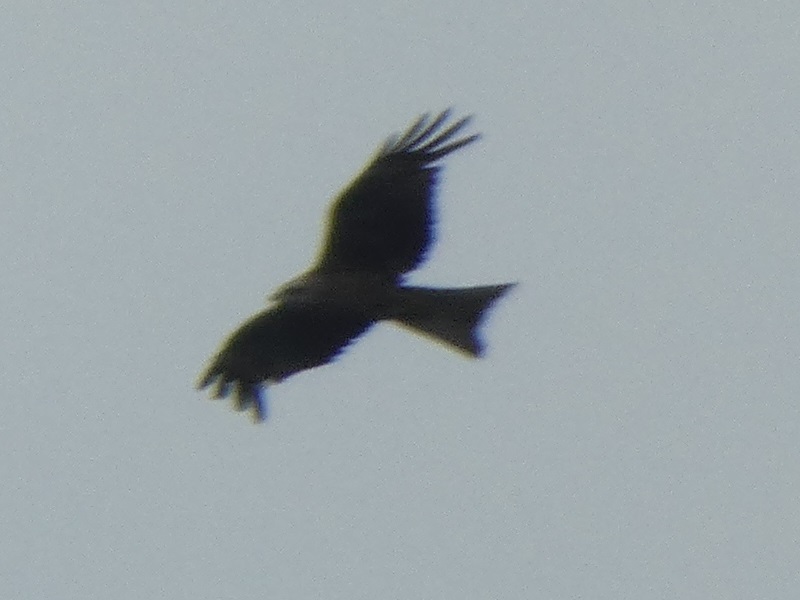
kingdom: Animalia
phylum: Chordata
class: Aves
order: Accipitriformes
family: Accipitridae
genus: Milvus
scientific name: Milvus migrans
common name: Black kite
